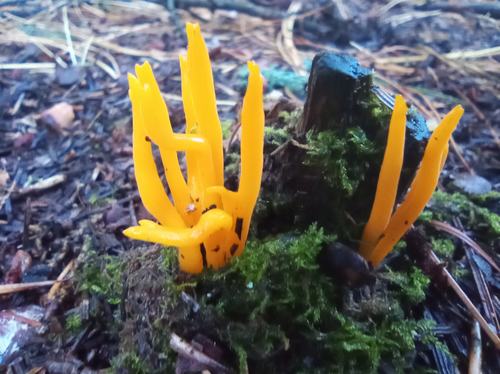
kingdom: Fungi
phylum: Basidiomycota
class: Dacrymycetes
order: Dacrymycetales
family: Dacrymycetaceae
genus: Calocera
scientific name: Calocera viscosa
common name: Yellow stagshorn
